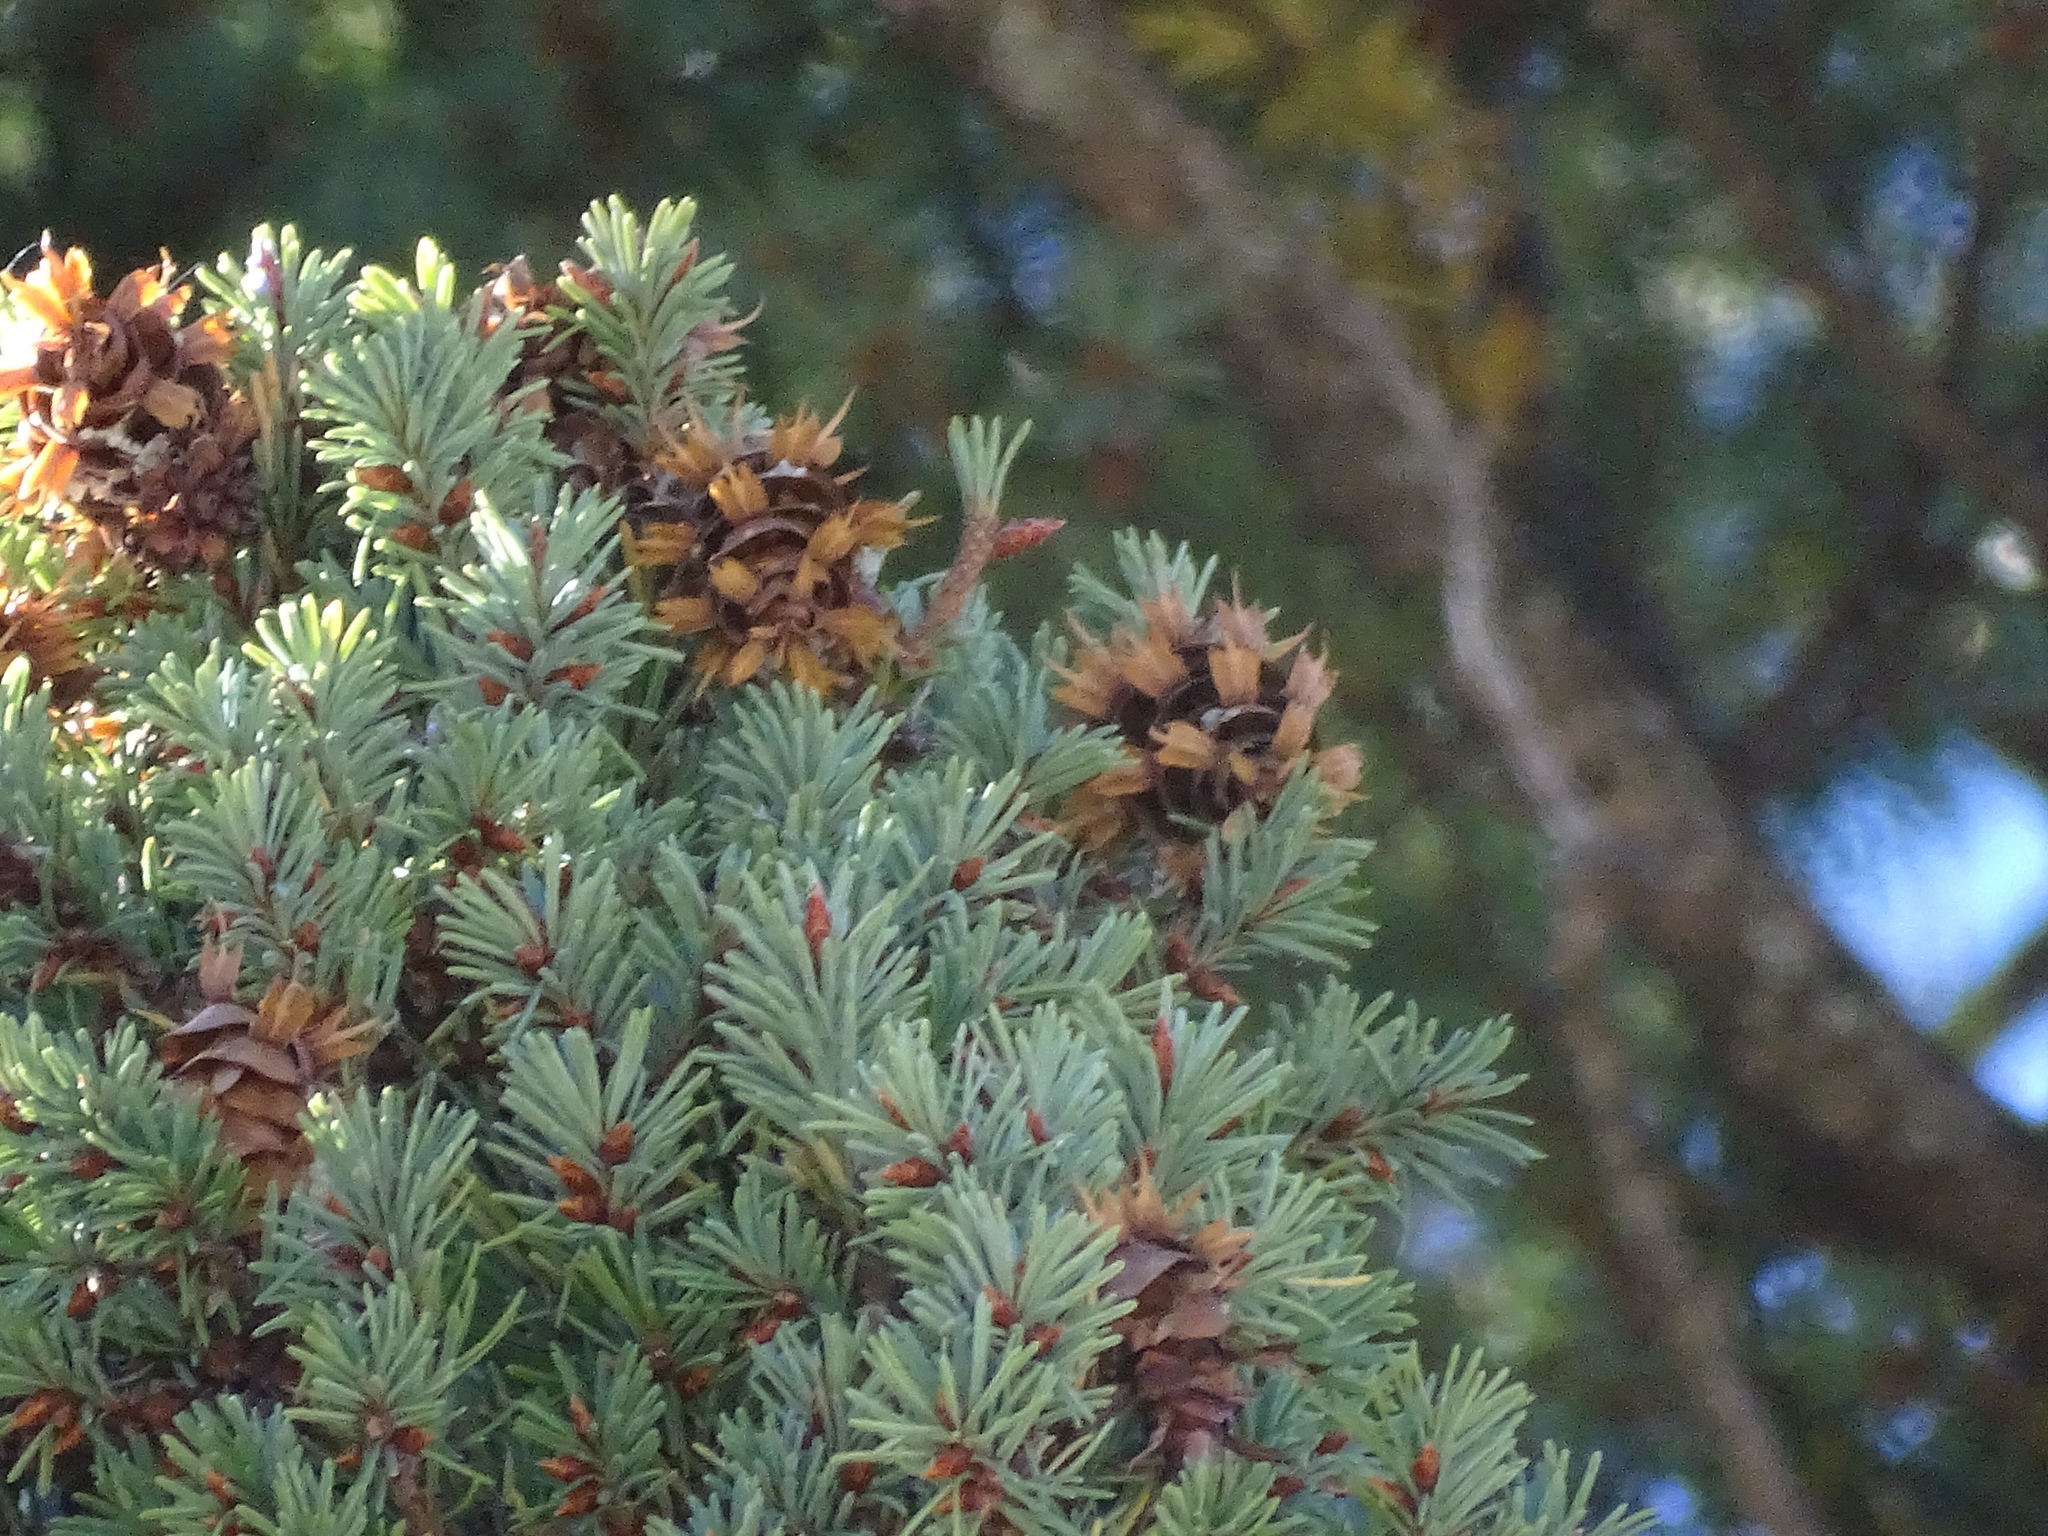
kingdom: Plantae
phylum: Tracheophyta
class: Pinopsida
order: Pinales
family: Pinaceae
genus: Pseudotsuga
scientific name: Pseudotsuga menziesii
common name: Douglas fir
